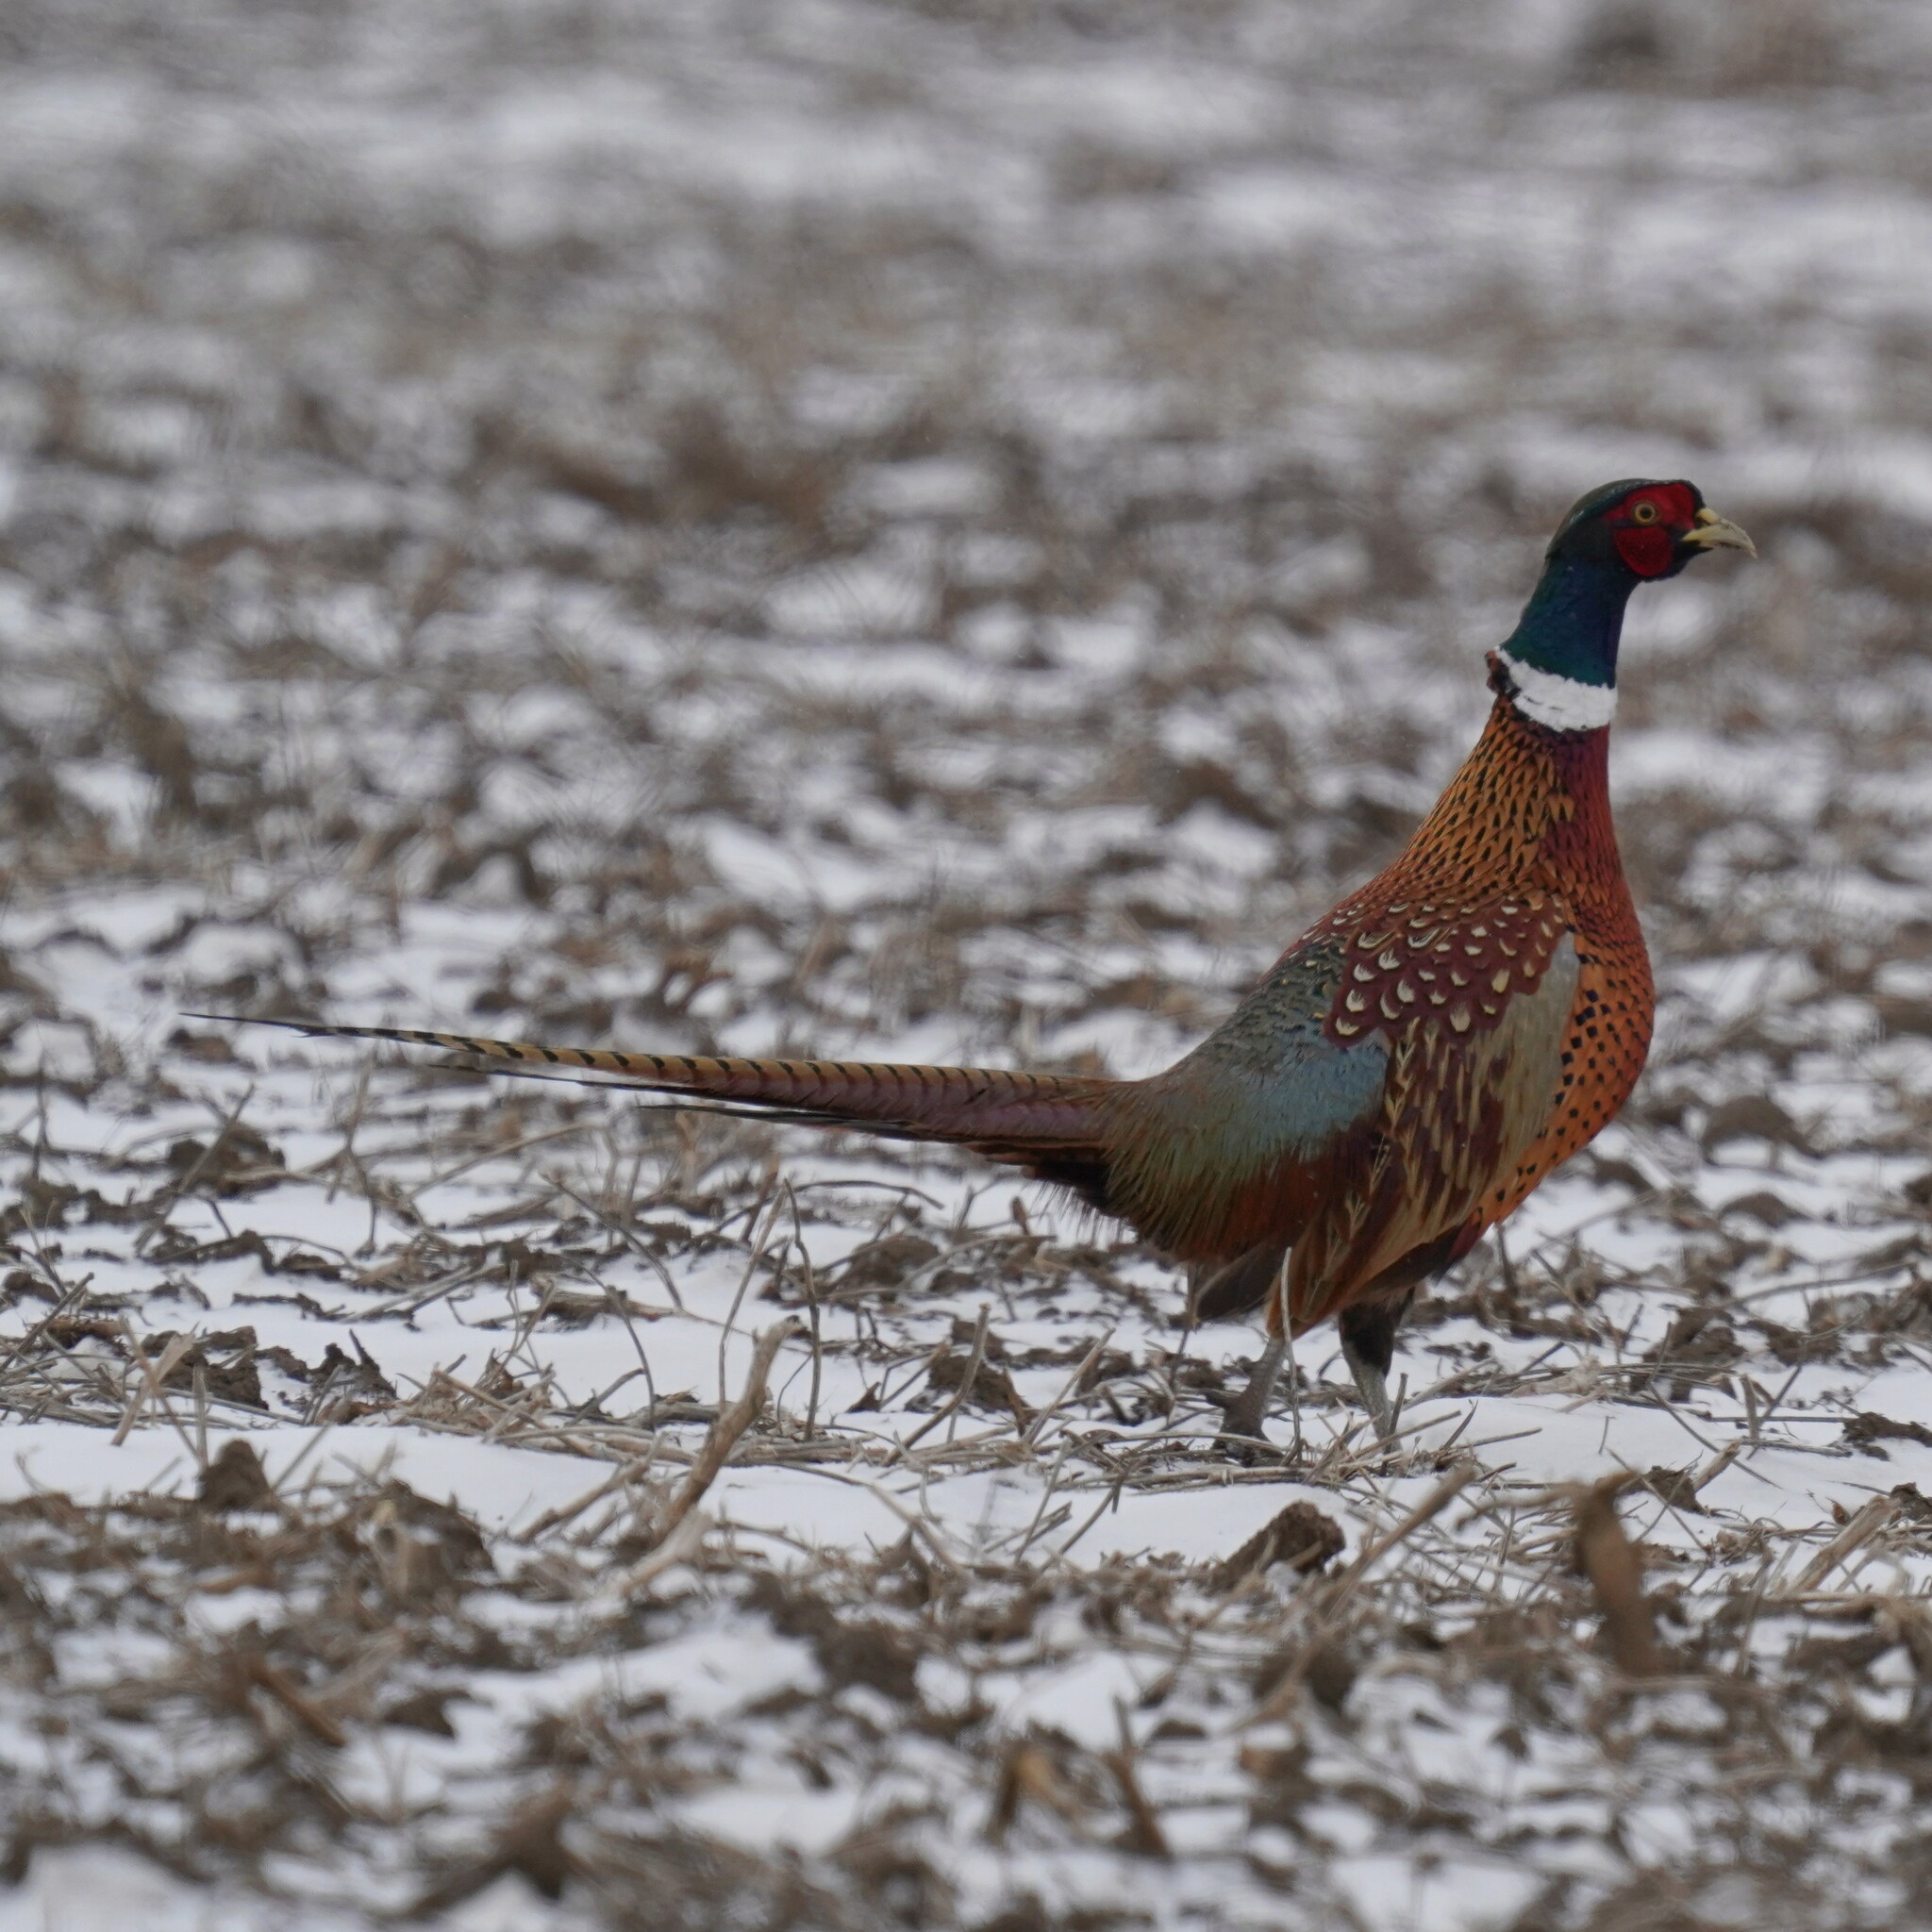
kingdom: Animalia
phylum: Chordata
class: Aves
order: Galliformes
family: Phasianidae
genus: Phasianus
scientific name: Phasianus colchicus
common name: Common pheasant
